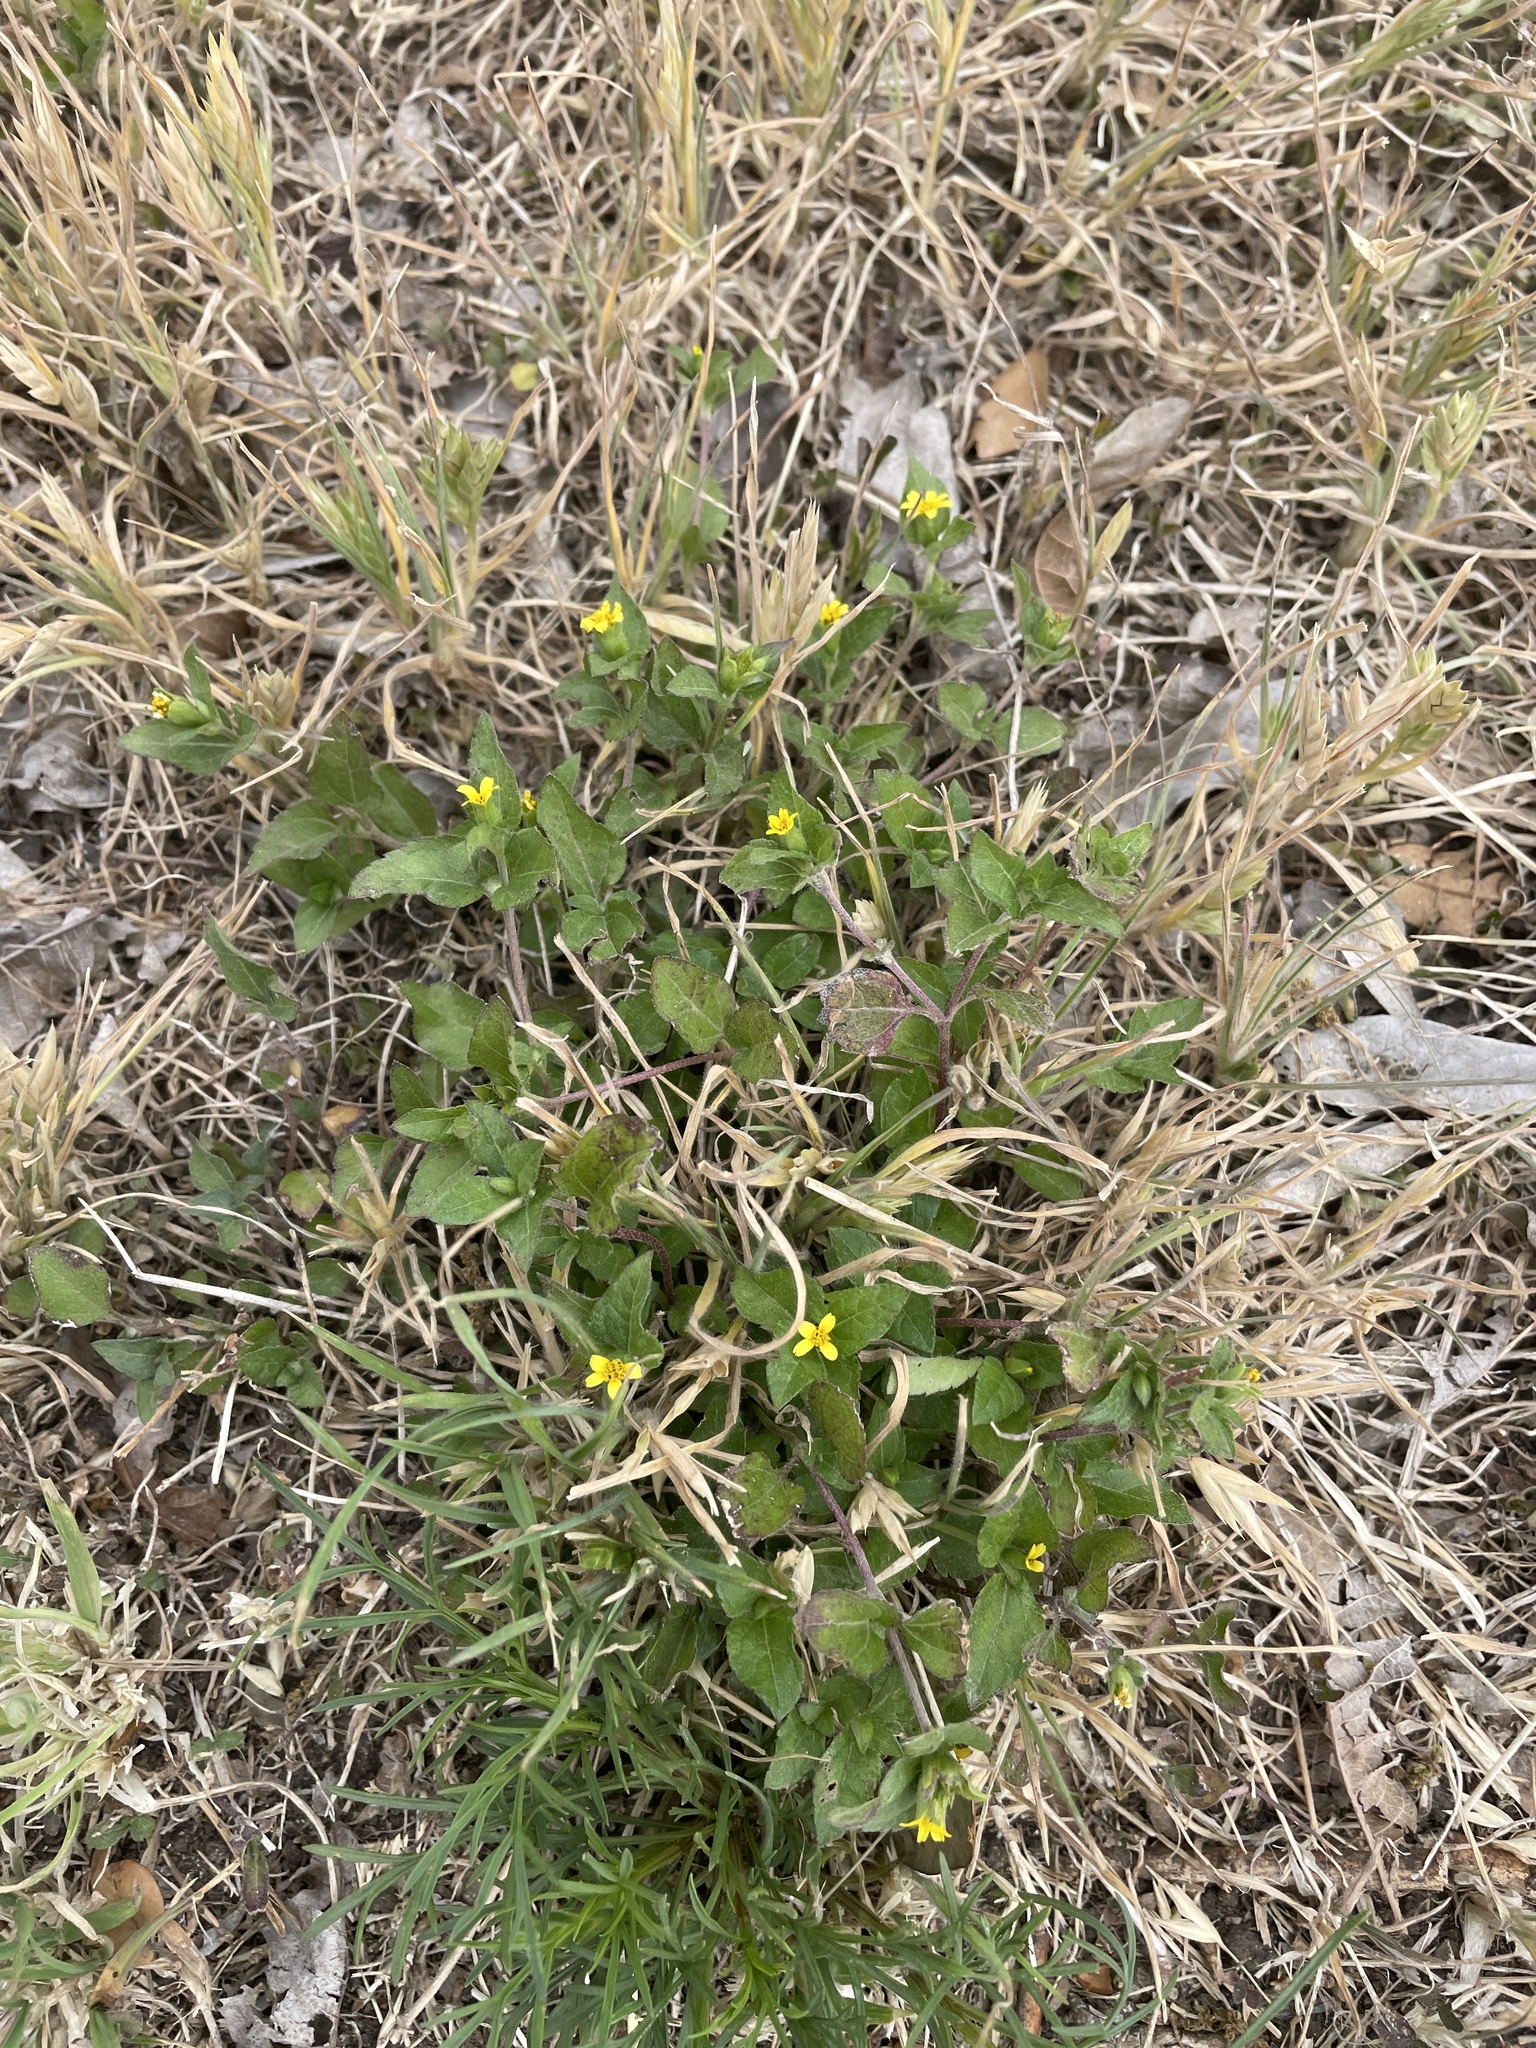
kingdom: Plantae
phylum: Tracheophyta
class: Magnoliopsida
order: Asterales
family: Asteraceae
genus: Calyptocarpus
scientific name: Calyptocarpus vialis
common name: Straggler daisy
